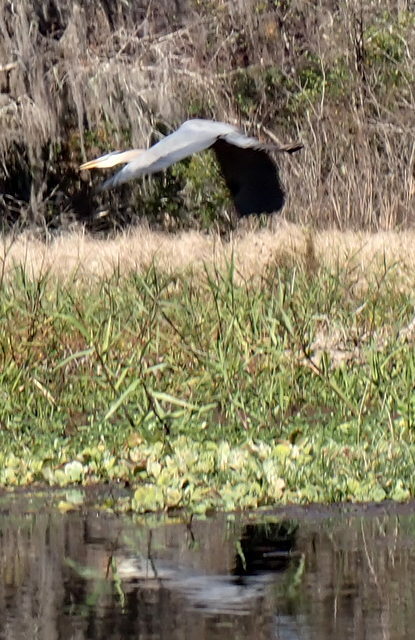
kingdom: Animalia
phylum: Chordata
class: Aves
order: Pelecaniformes
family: Ardeidae
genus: Ardea
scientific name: Ardea herodias
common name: Great blue heron
